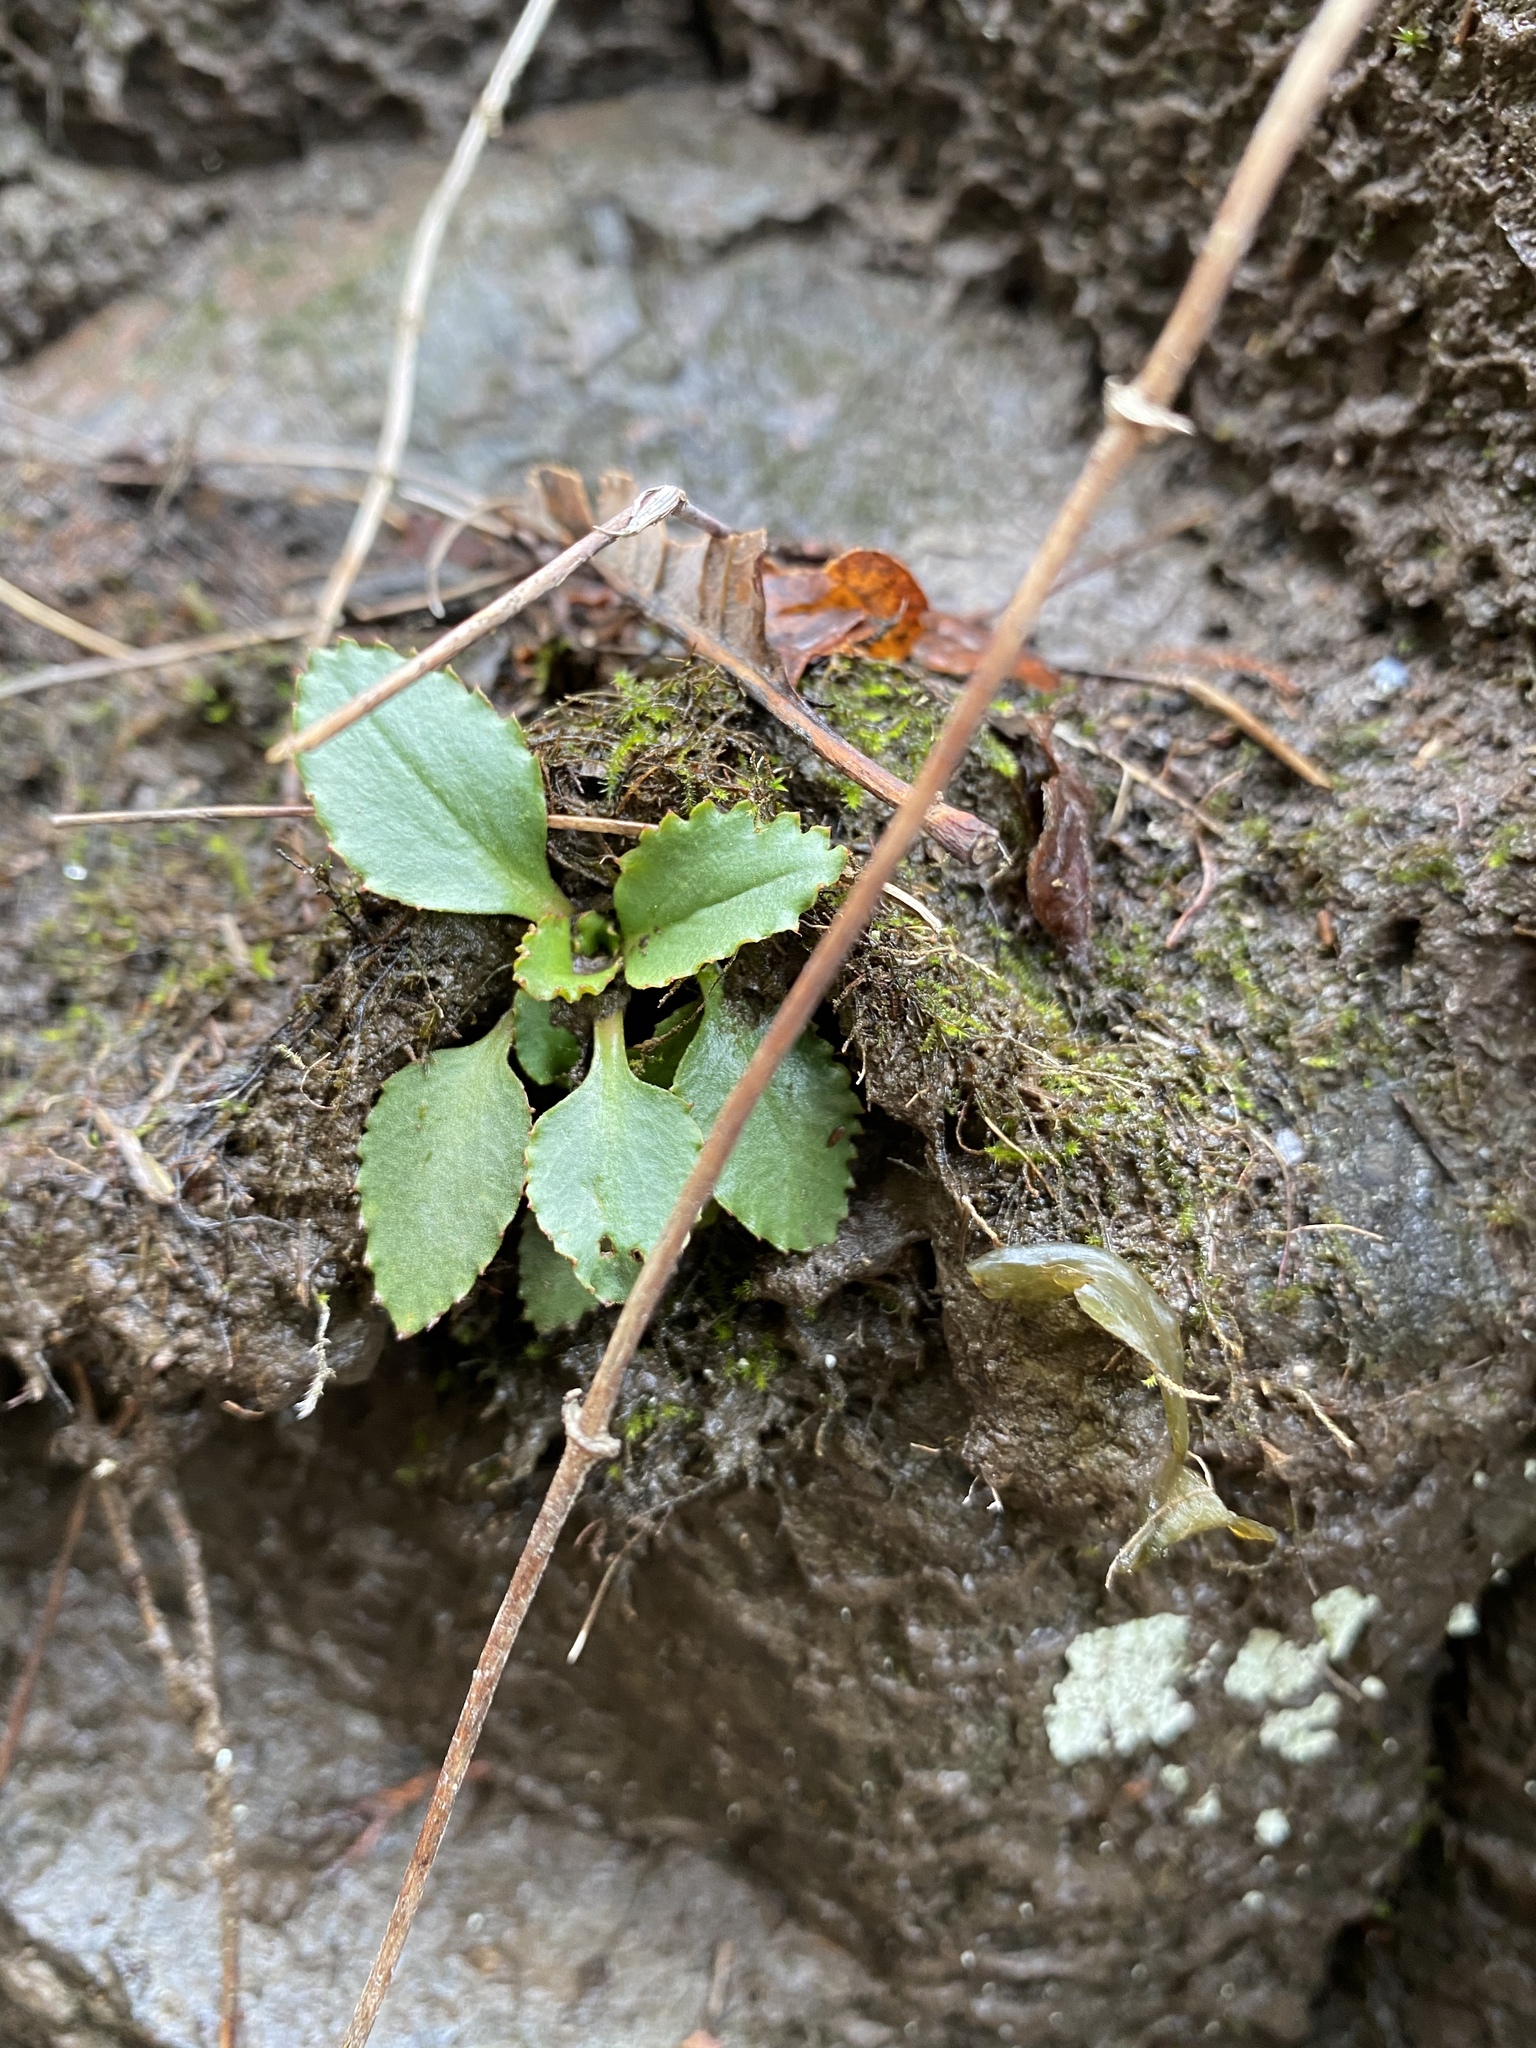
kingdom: Plantae
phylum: Tracheophyta
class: Magnoliopsida
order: Saxifragales
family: Saxifragaceae
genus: Micranthes
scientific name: Micranthes virginiensis
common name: Early saxifrage
